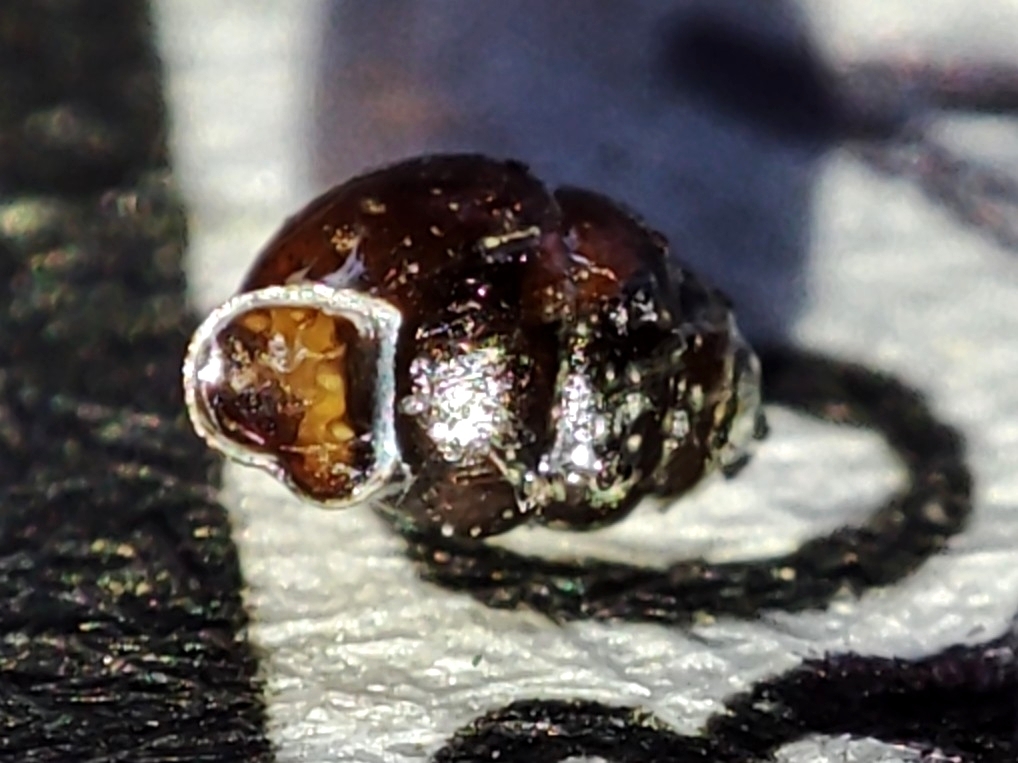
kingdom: Animalia
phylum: Mollusca
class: Gastropoda
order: Stylommatophora
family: Vertiginidae
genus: Vertigo
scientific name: Vertigo antivertigo
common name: Marsh whorl snail
